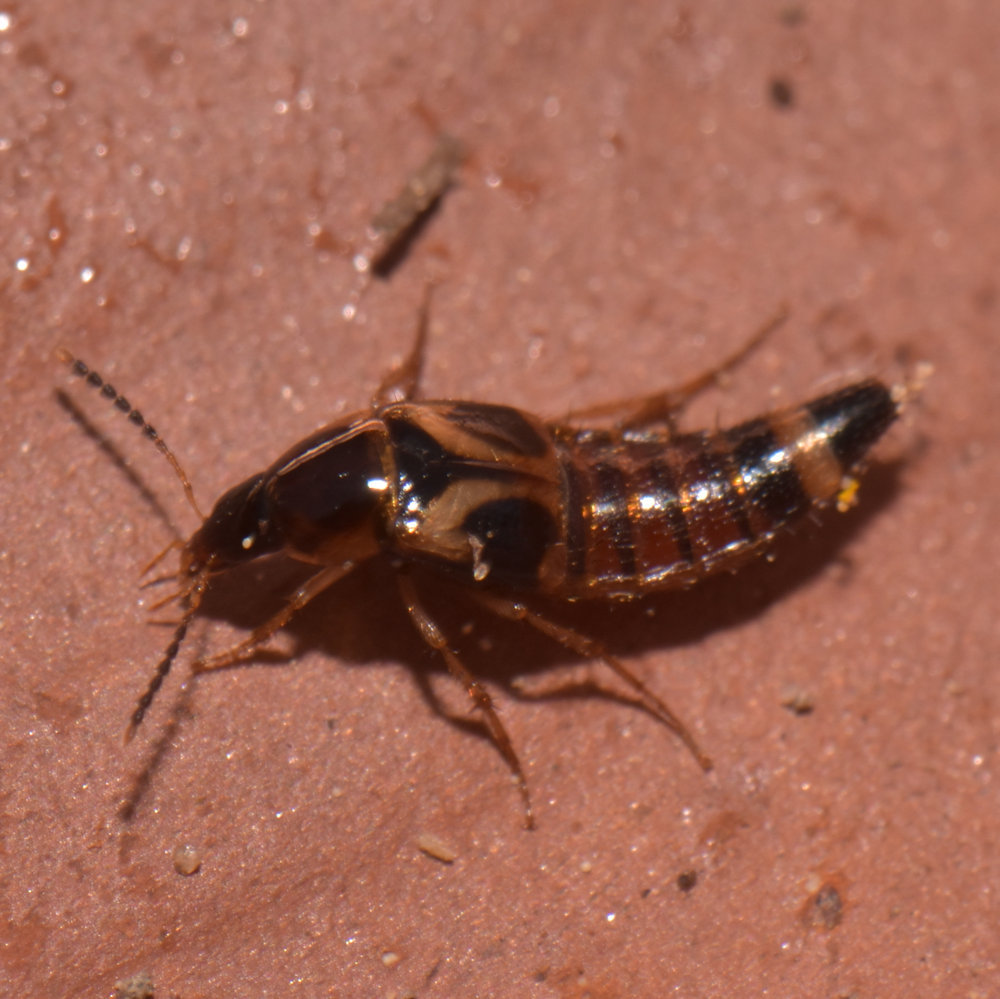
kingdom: Animalia
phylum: Arthropoda
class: Insecta
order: Coleoptera
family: Staphylinidae
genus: Bobitobus
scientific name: Bobitobus fungicola
